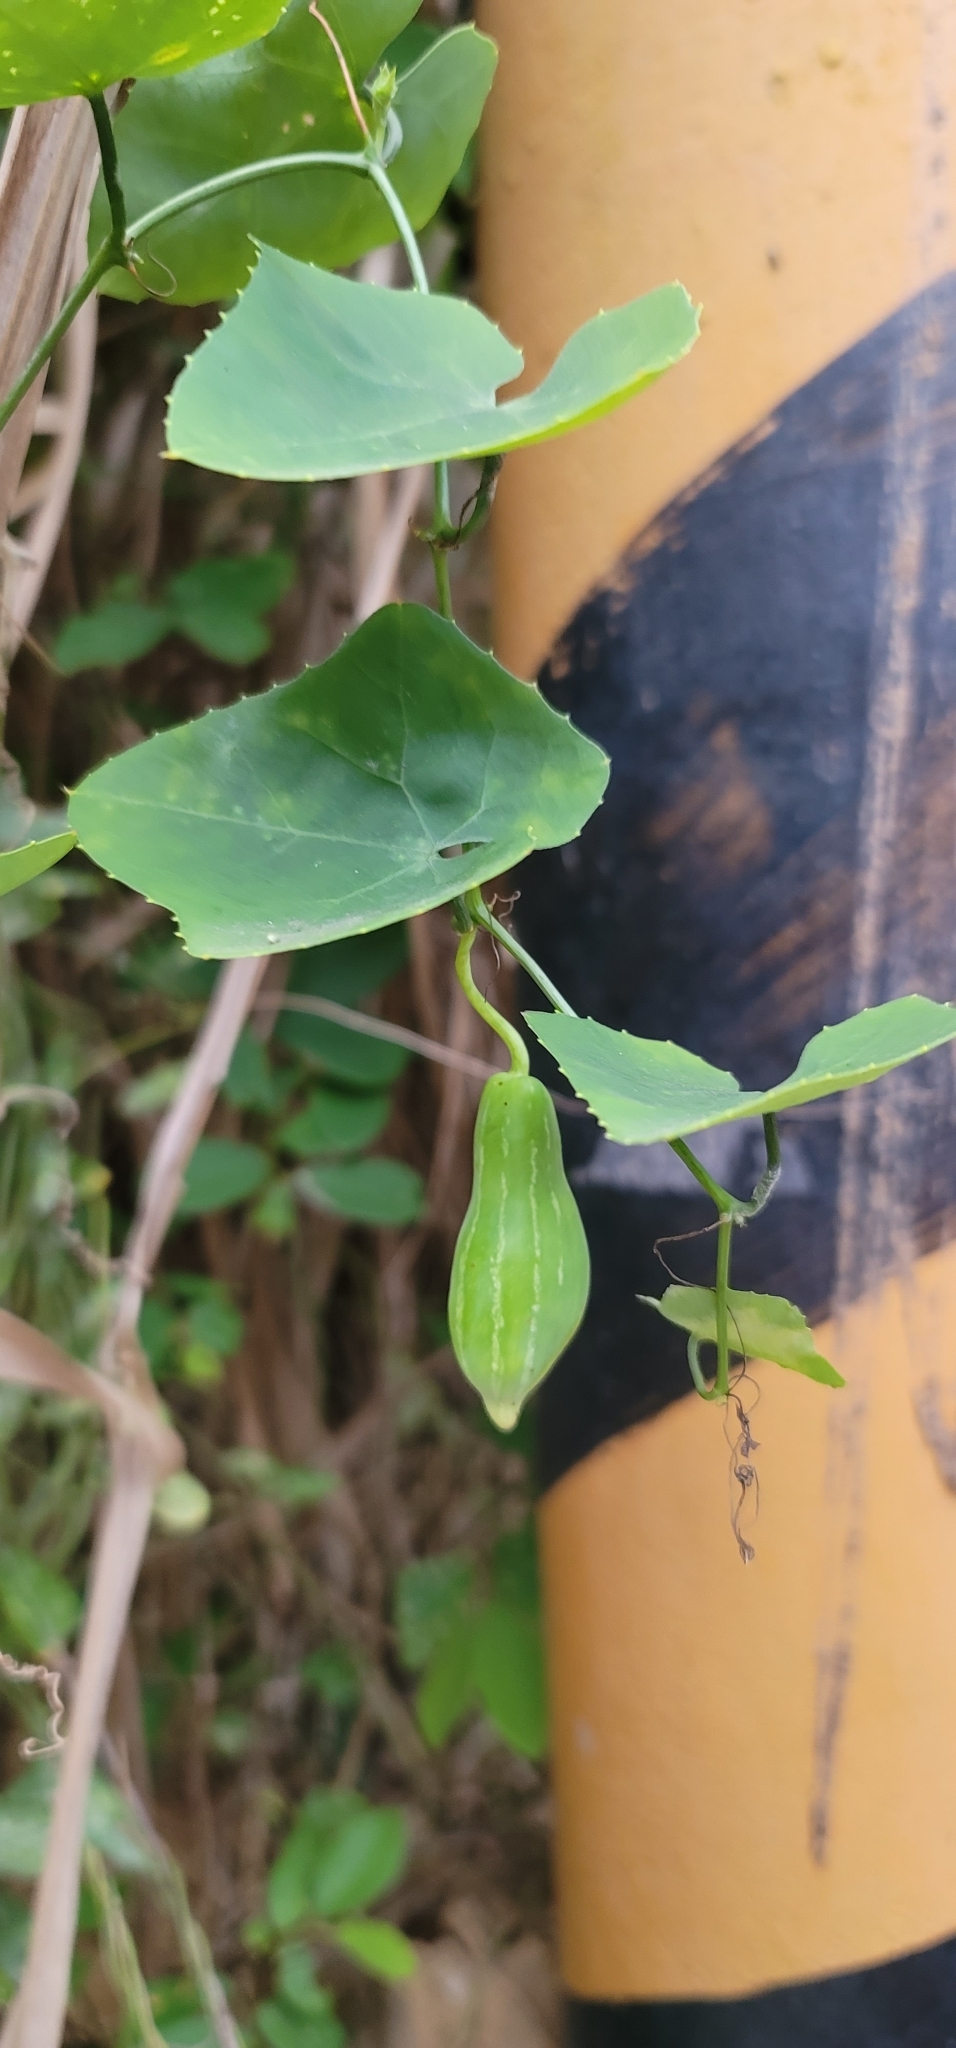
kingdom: Plantae
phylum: Tracheophyta
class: Magnoliopsida
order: Cucurbitales
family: Cucurbitaceae
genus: Coccinia
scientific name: Coccinia grandis
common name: Ivy gourd
